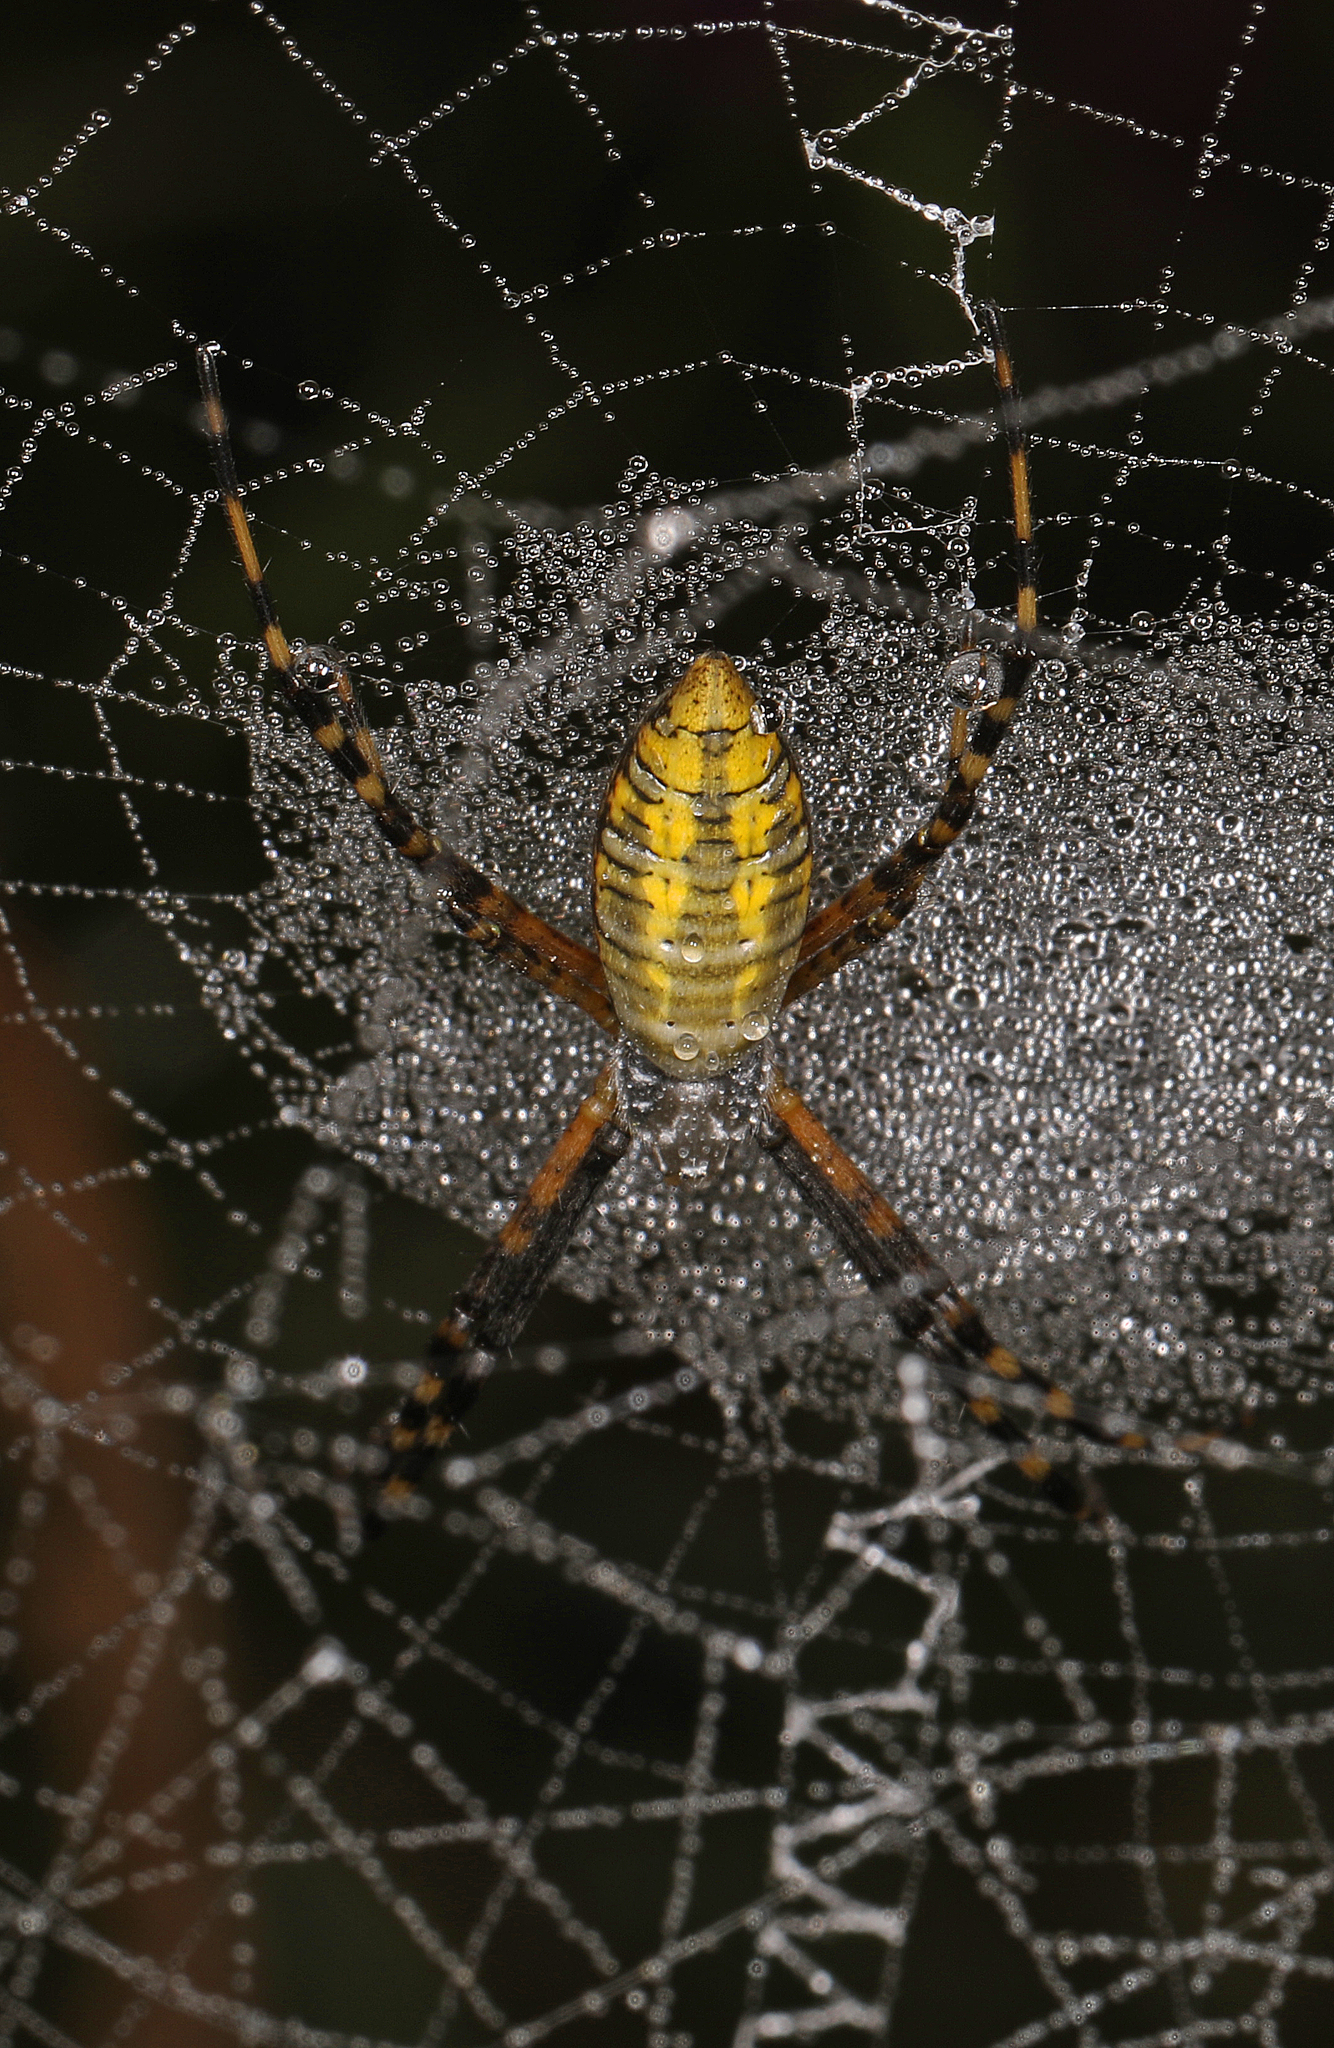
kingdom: Animalia
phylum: Arthropoda
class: Arachnida
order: Araneae
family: Araneidae
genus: Argiope
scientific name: Argiope trifasciata
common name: Banded garden spider
